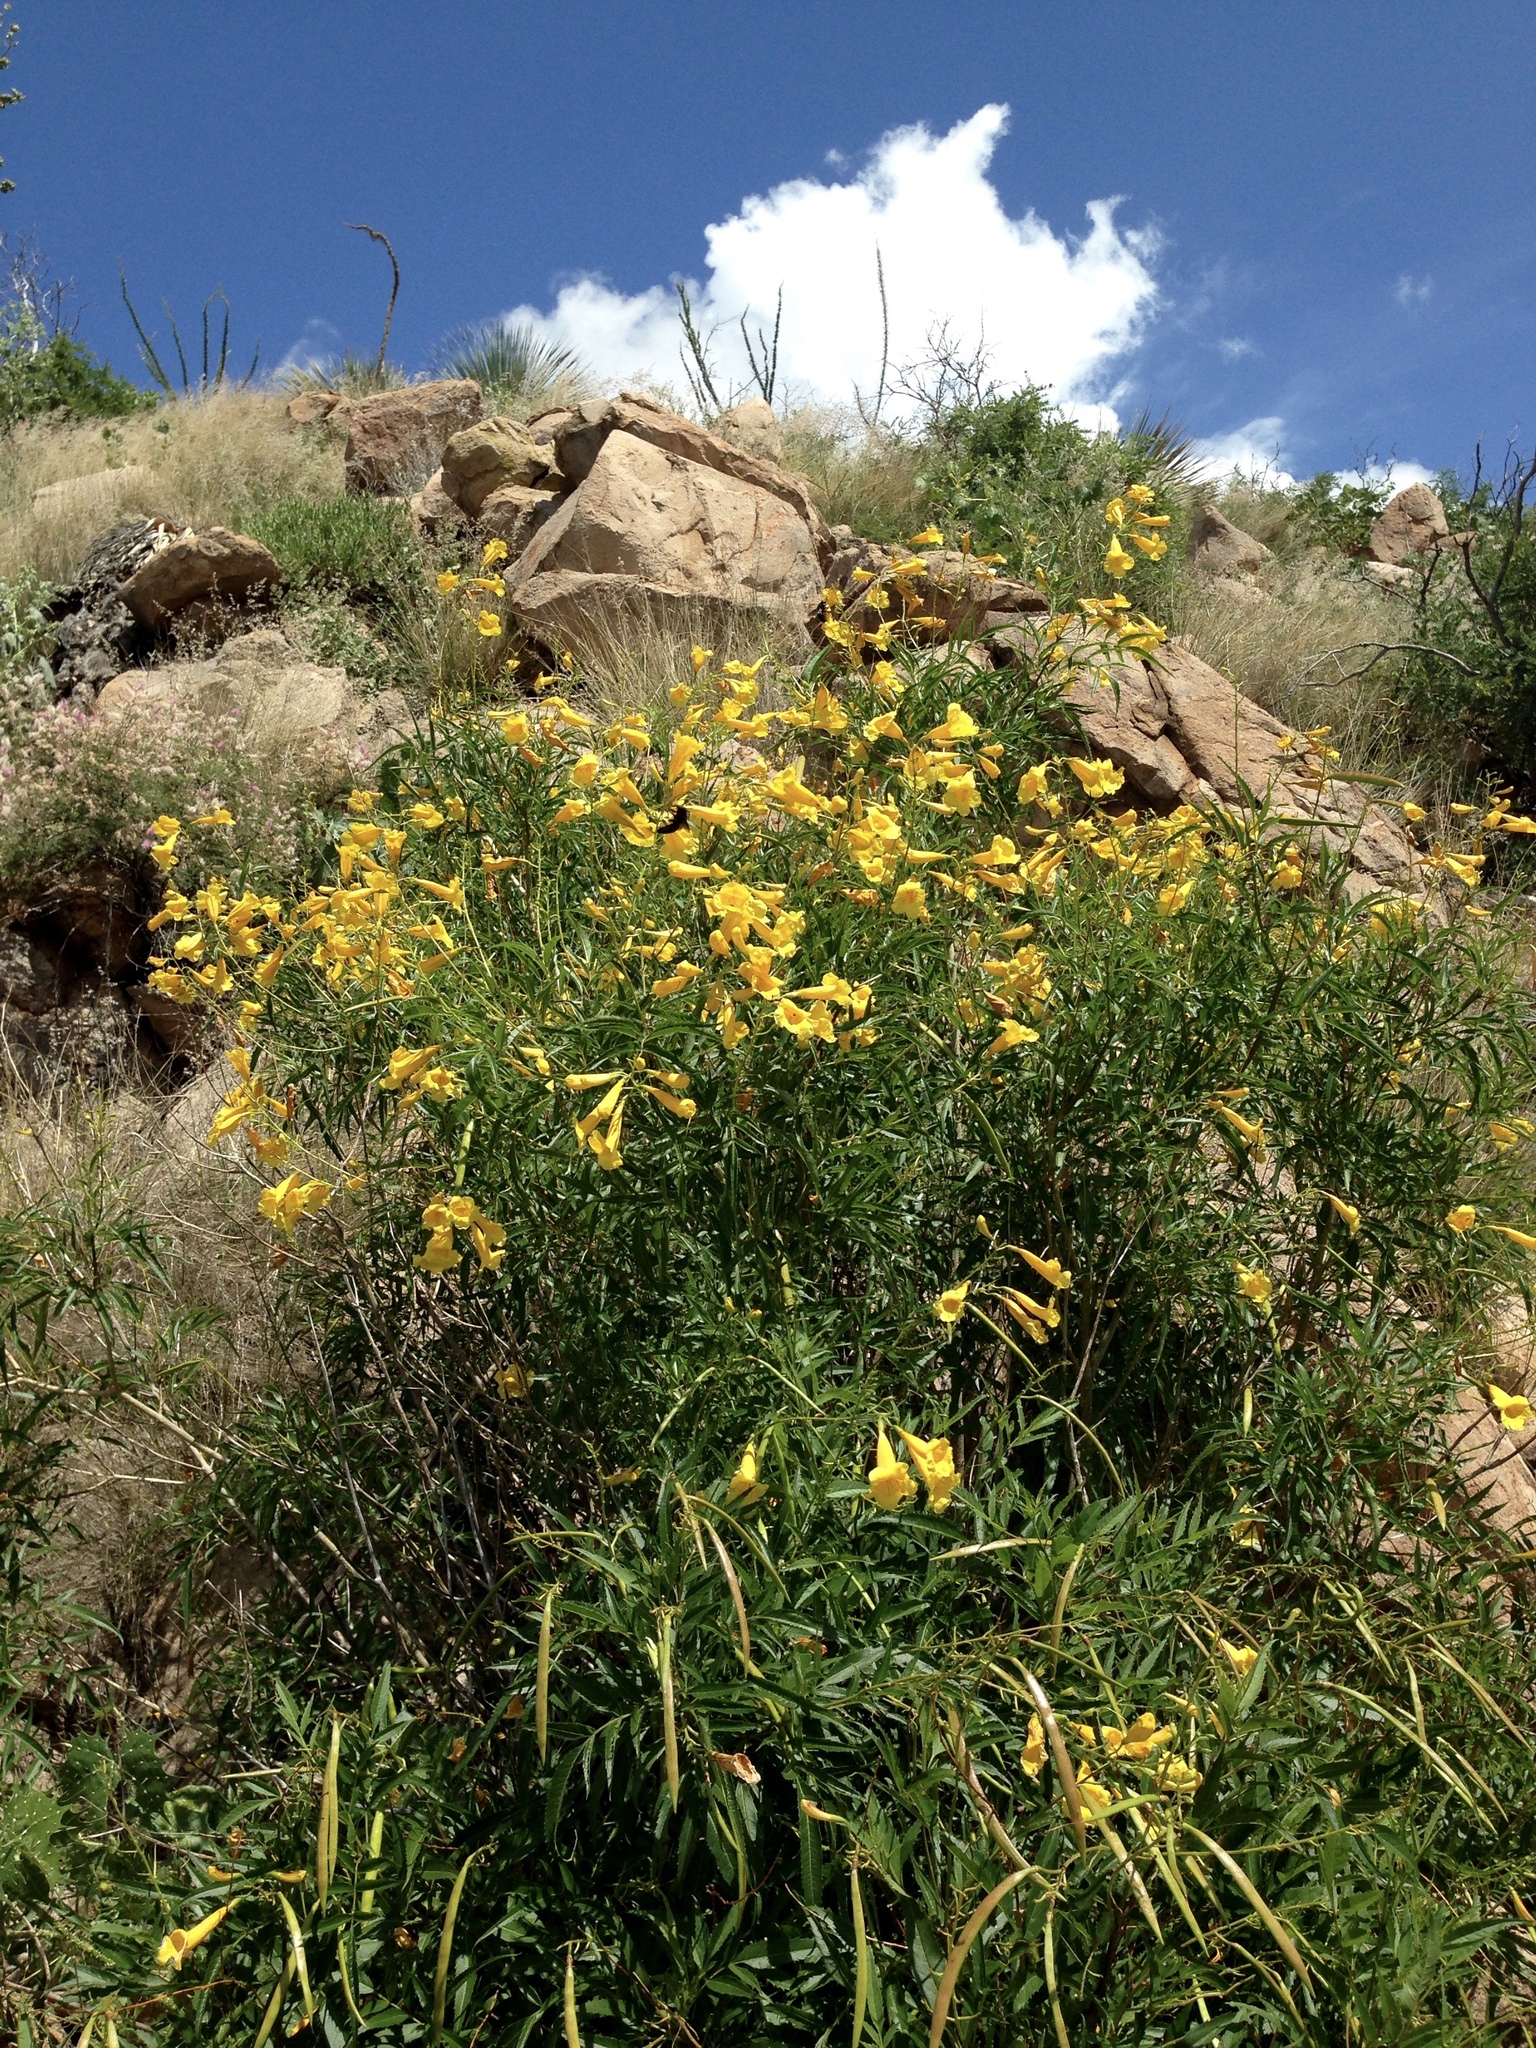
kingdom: Plantae
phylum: Tracheophyta
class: Magnoliopsida
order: Lamiales
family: Bignoniaceae
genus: Tecoma
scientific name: Tecoma stans
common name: Yellow trumpetbush
